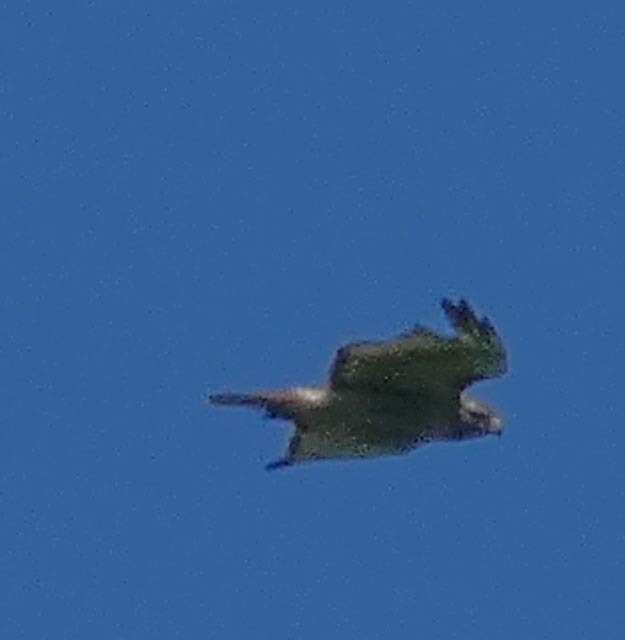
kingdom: Animalia
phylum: Chordata
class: Aves
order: Accipitriformes
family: Accipitridae
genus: Buteo
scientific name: Buteo jamaicensis
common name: Red-tailed hawk
